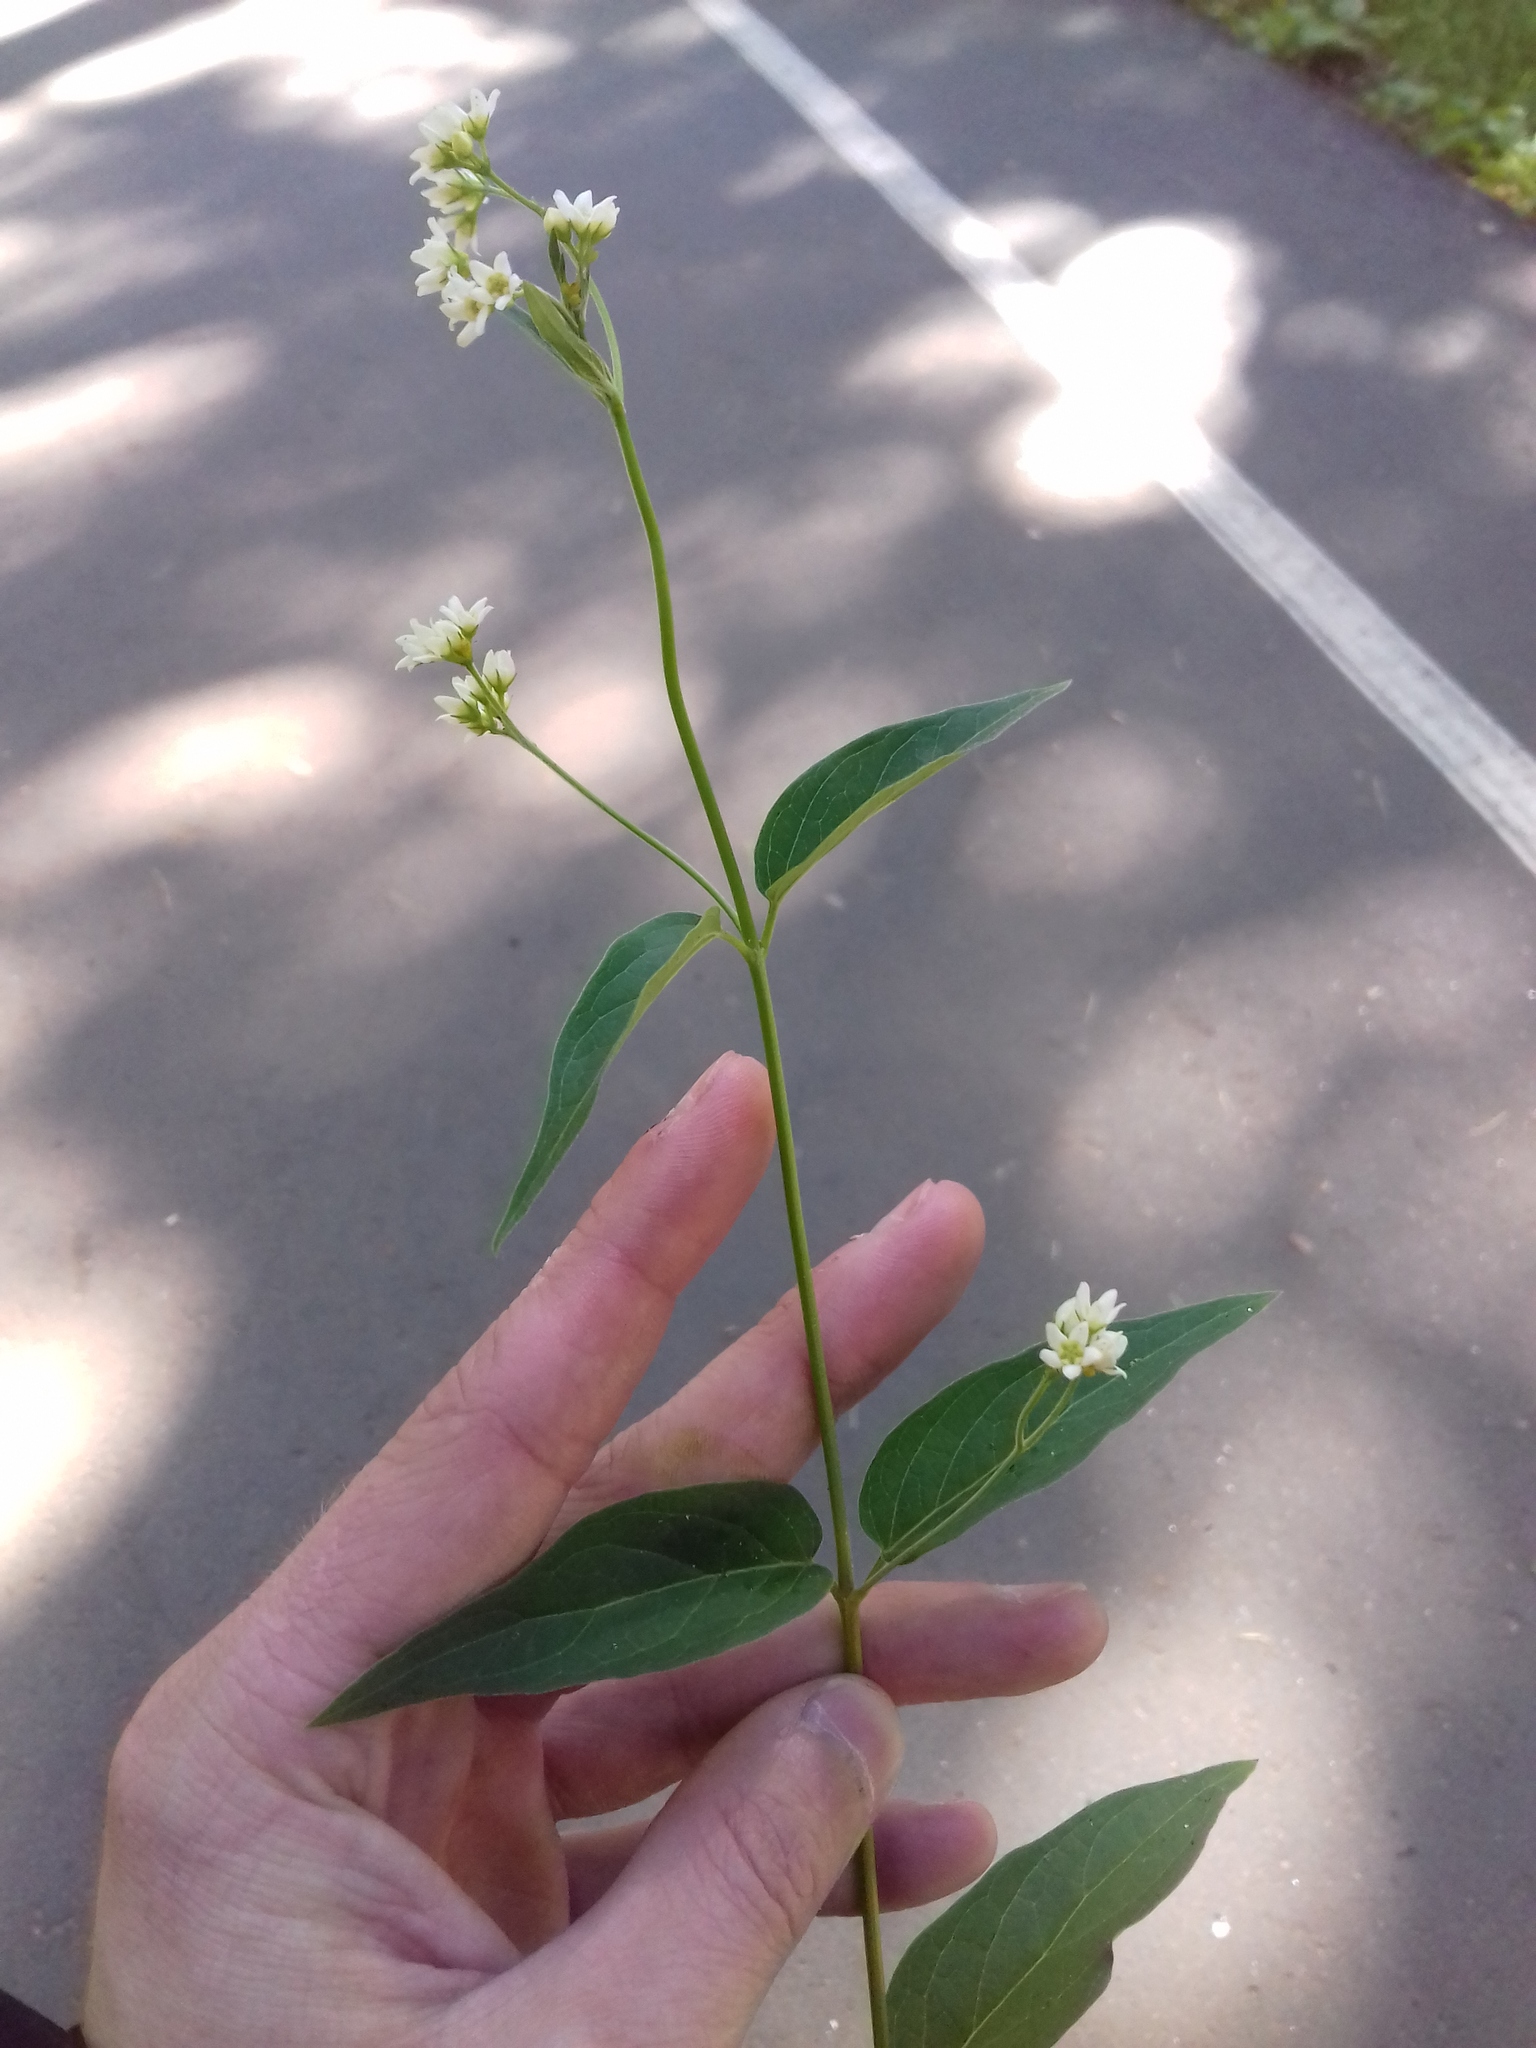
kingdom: Plantae
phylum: Tracheophyta
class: Magnoliopsida
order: Gentianales
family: Apocynaceae
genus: Vincetoxicum
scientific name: Vincetoxicum hirundinaria
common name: White swallowwort
